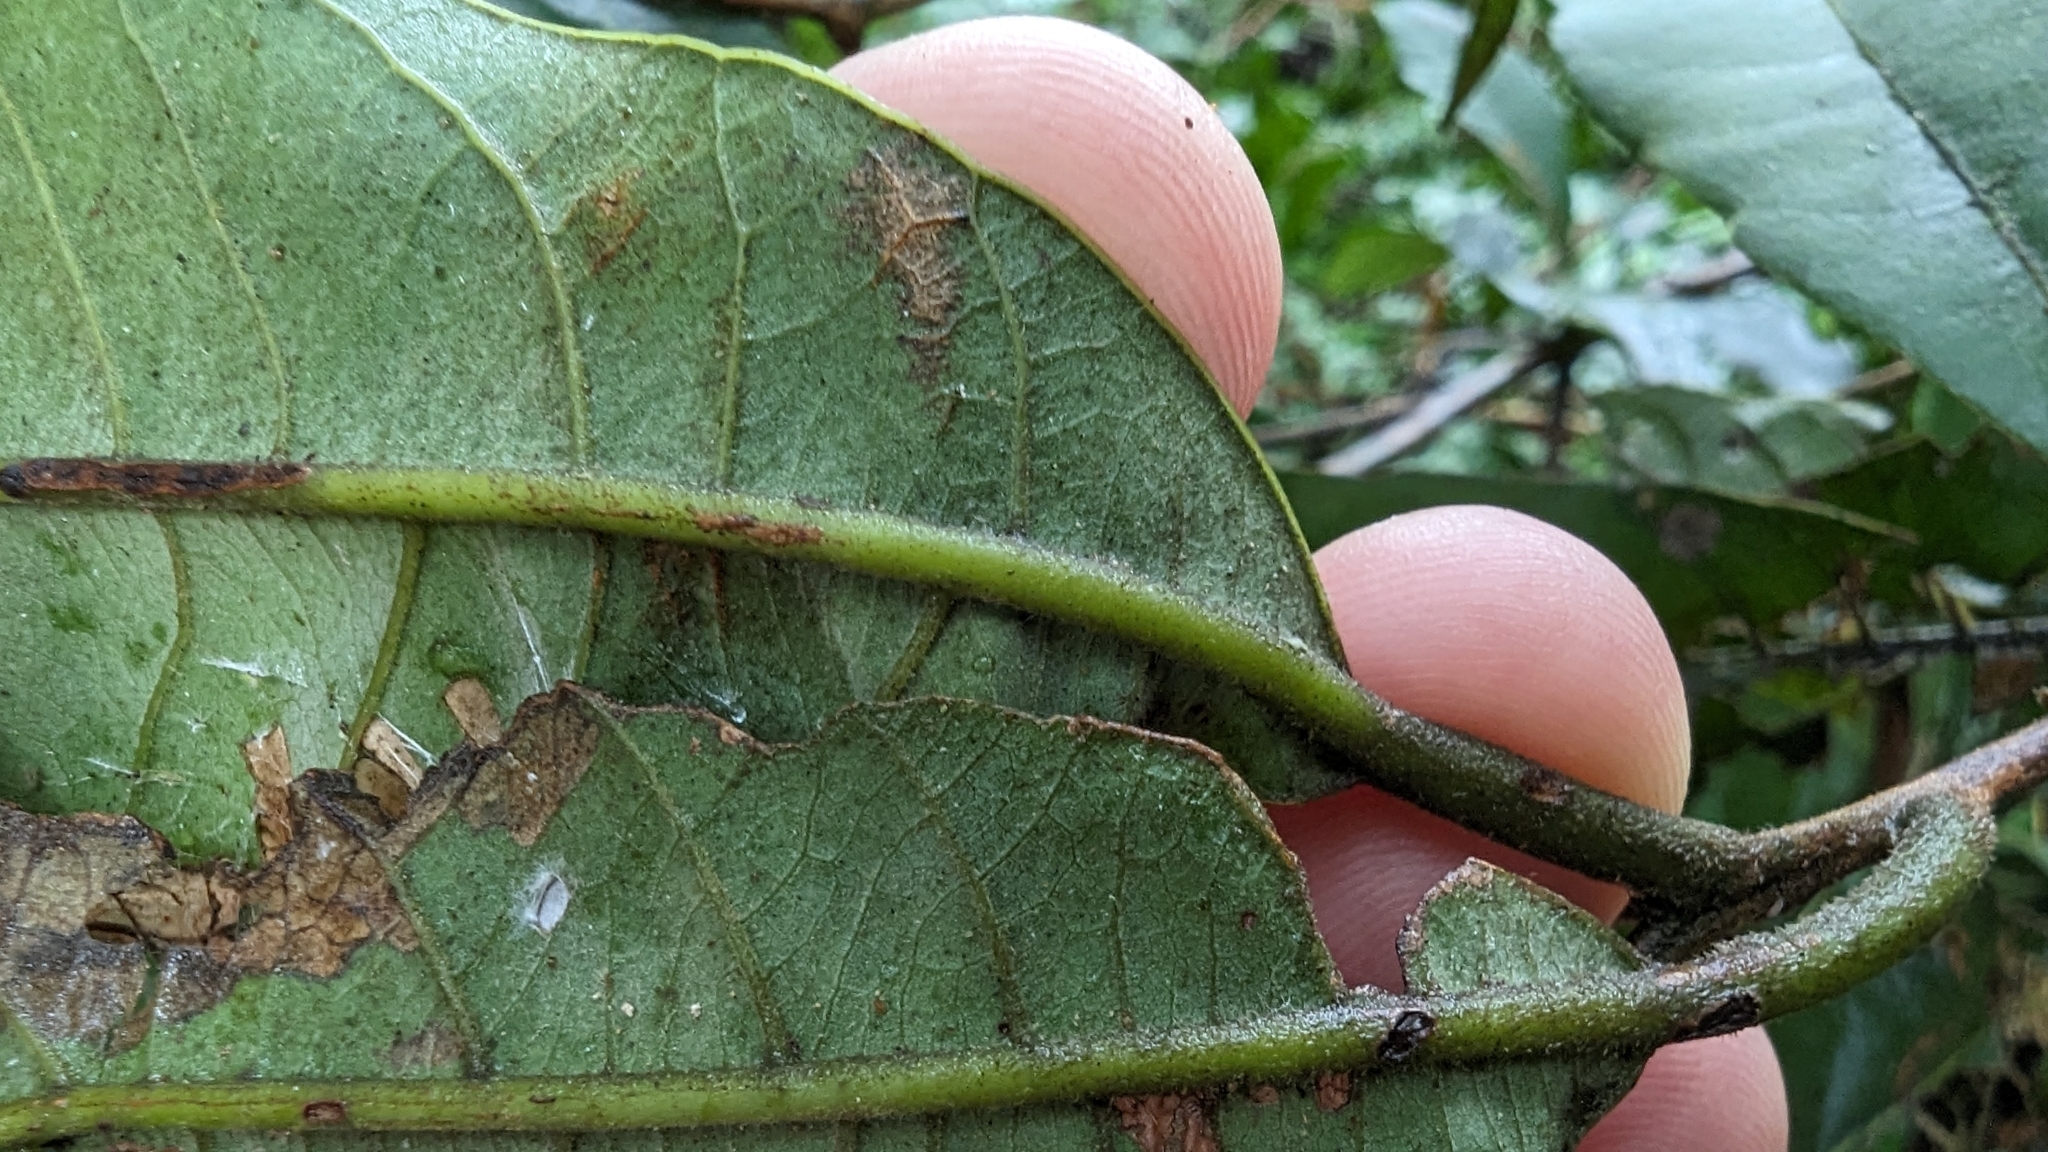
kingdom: Plantae
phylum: Tracheophyta
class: Magnoliopsida
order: Laurales
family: Lauraceae
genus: Litsea
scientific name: Litsea akoensis
